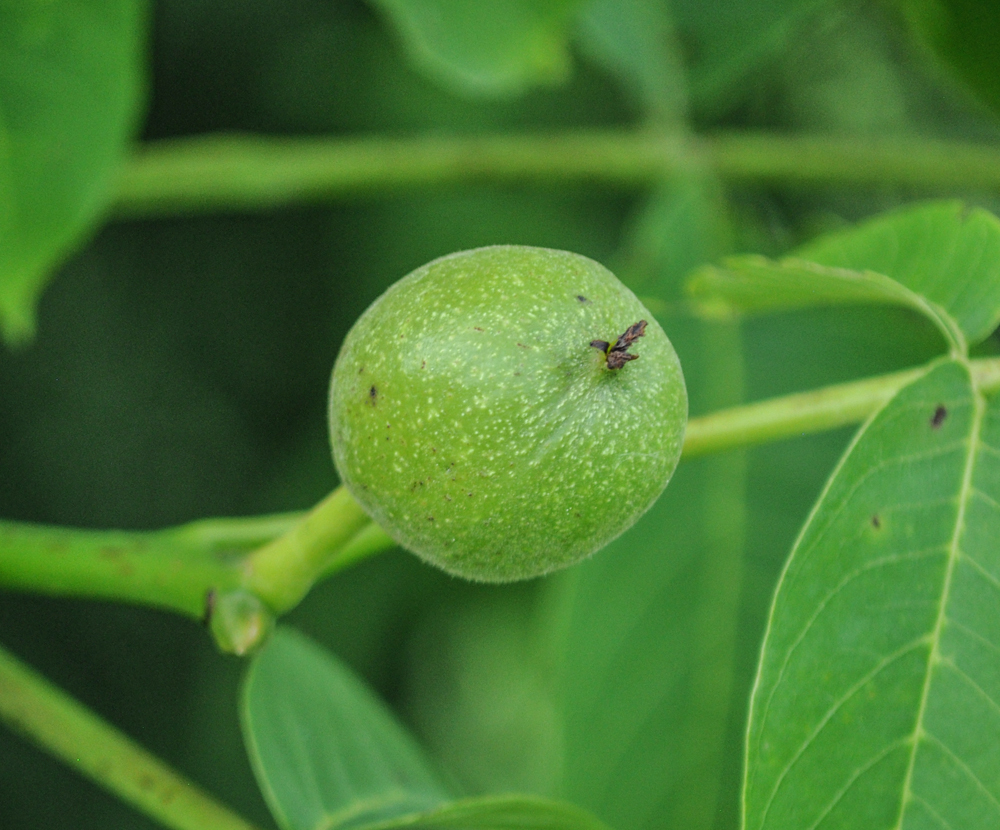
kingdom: Plantae
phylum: Tracheophyta
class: Magnoliopsida
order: Fagales
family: Juglandaceae
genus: Juglans
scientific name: Juglans nigra
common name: Black walnut
